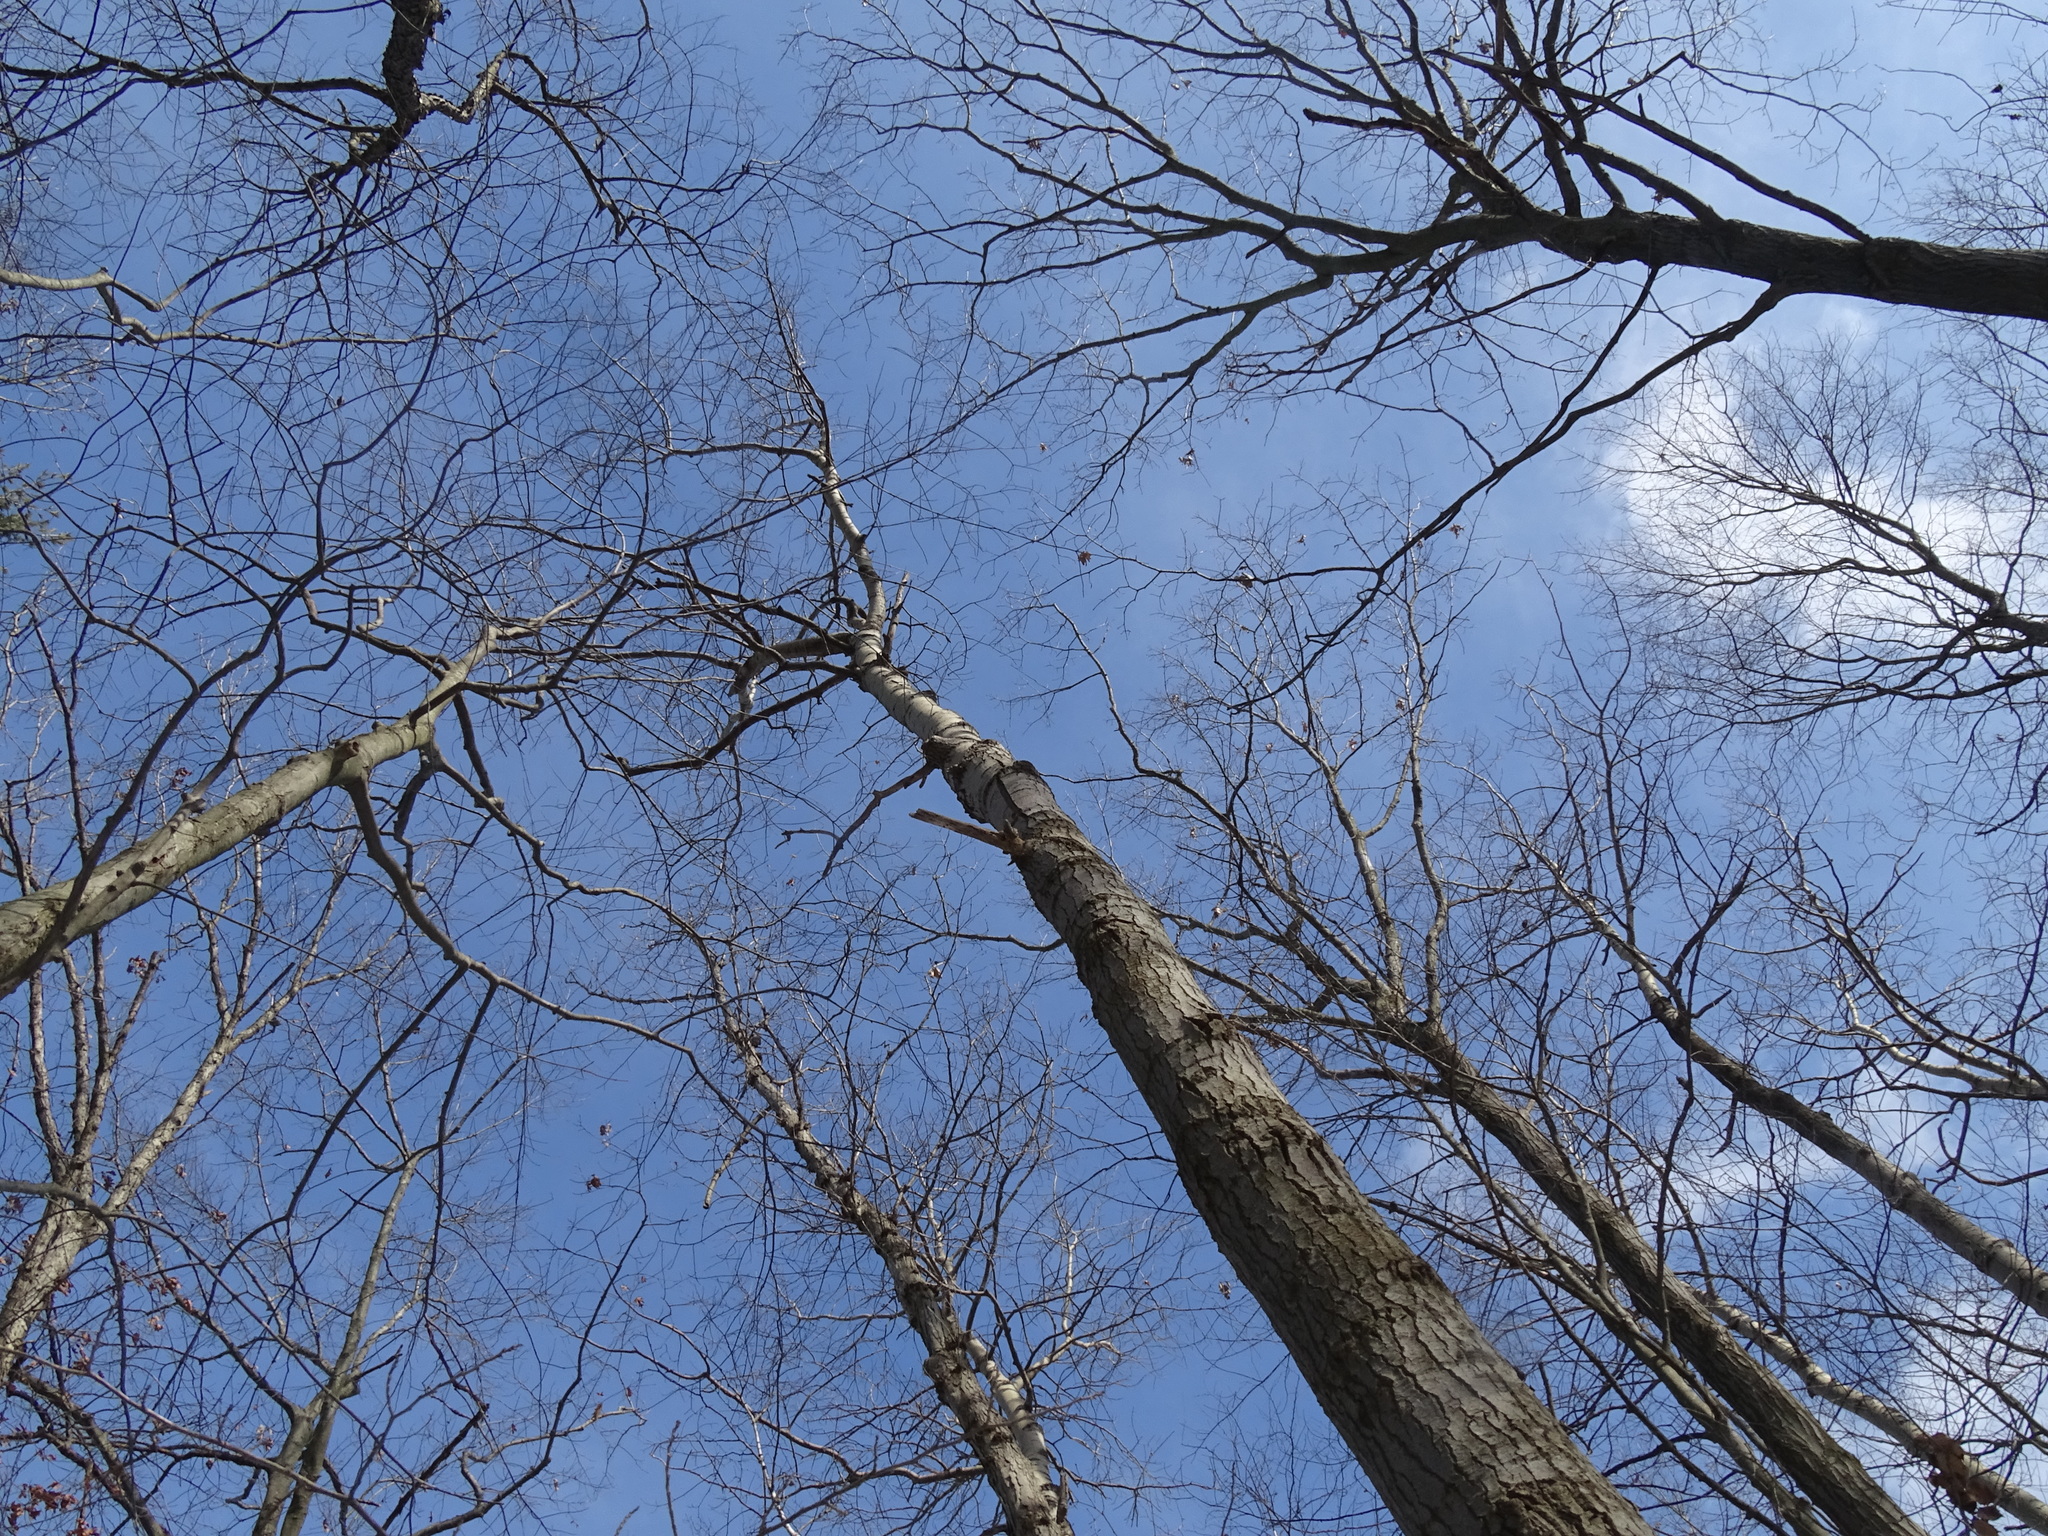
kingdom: Plantae
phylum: Tracheophyta
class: Magnoliopsida
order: Malpighiales
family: Salicaceae
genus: Populus
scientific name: Populus grandidentata
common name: Bigtooth aspen
